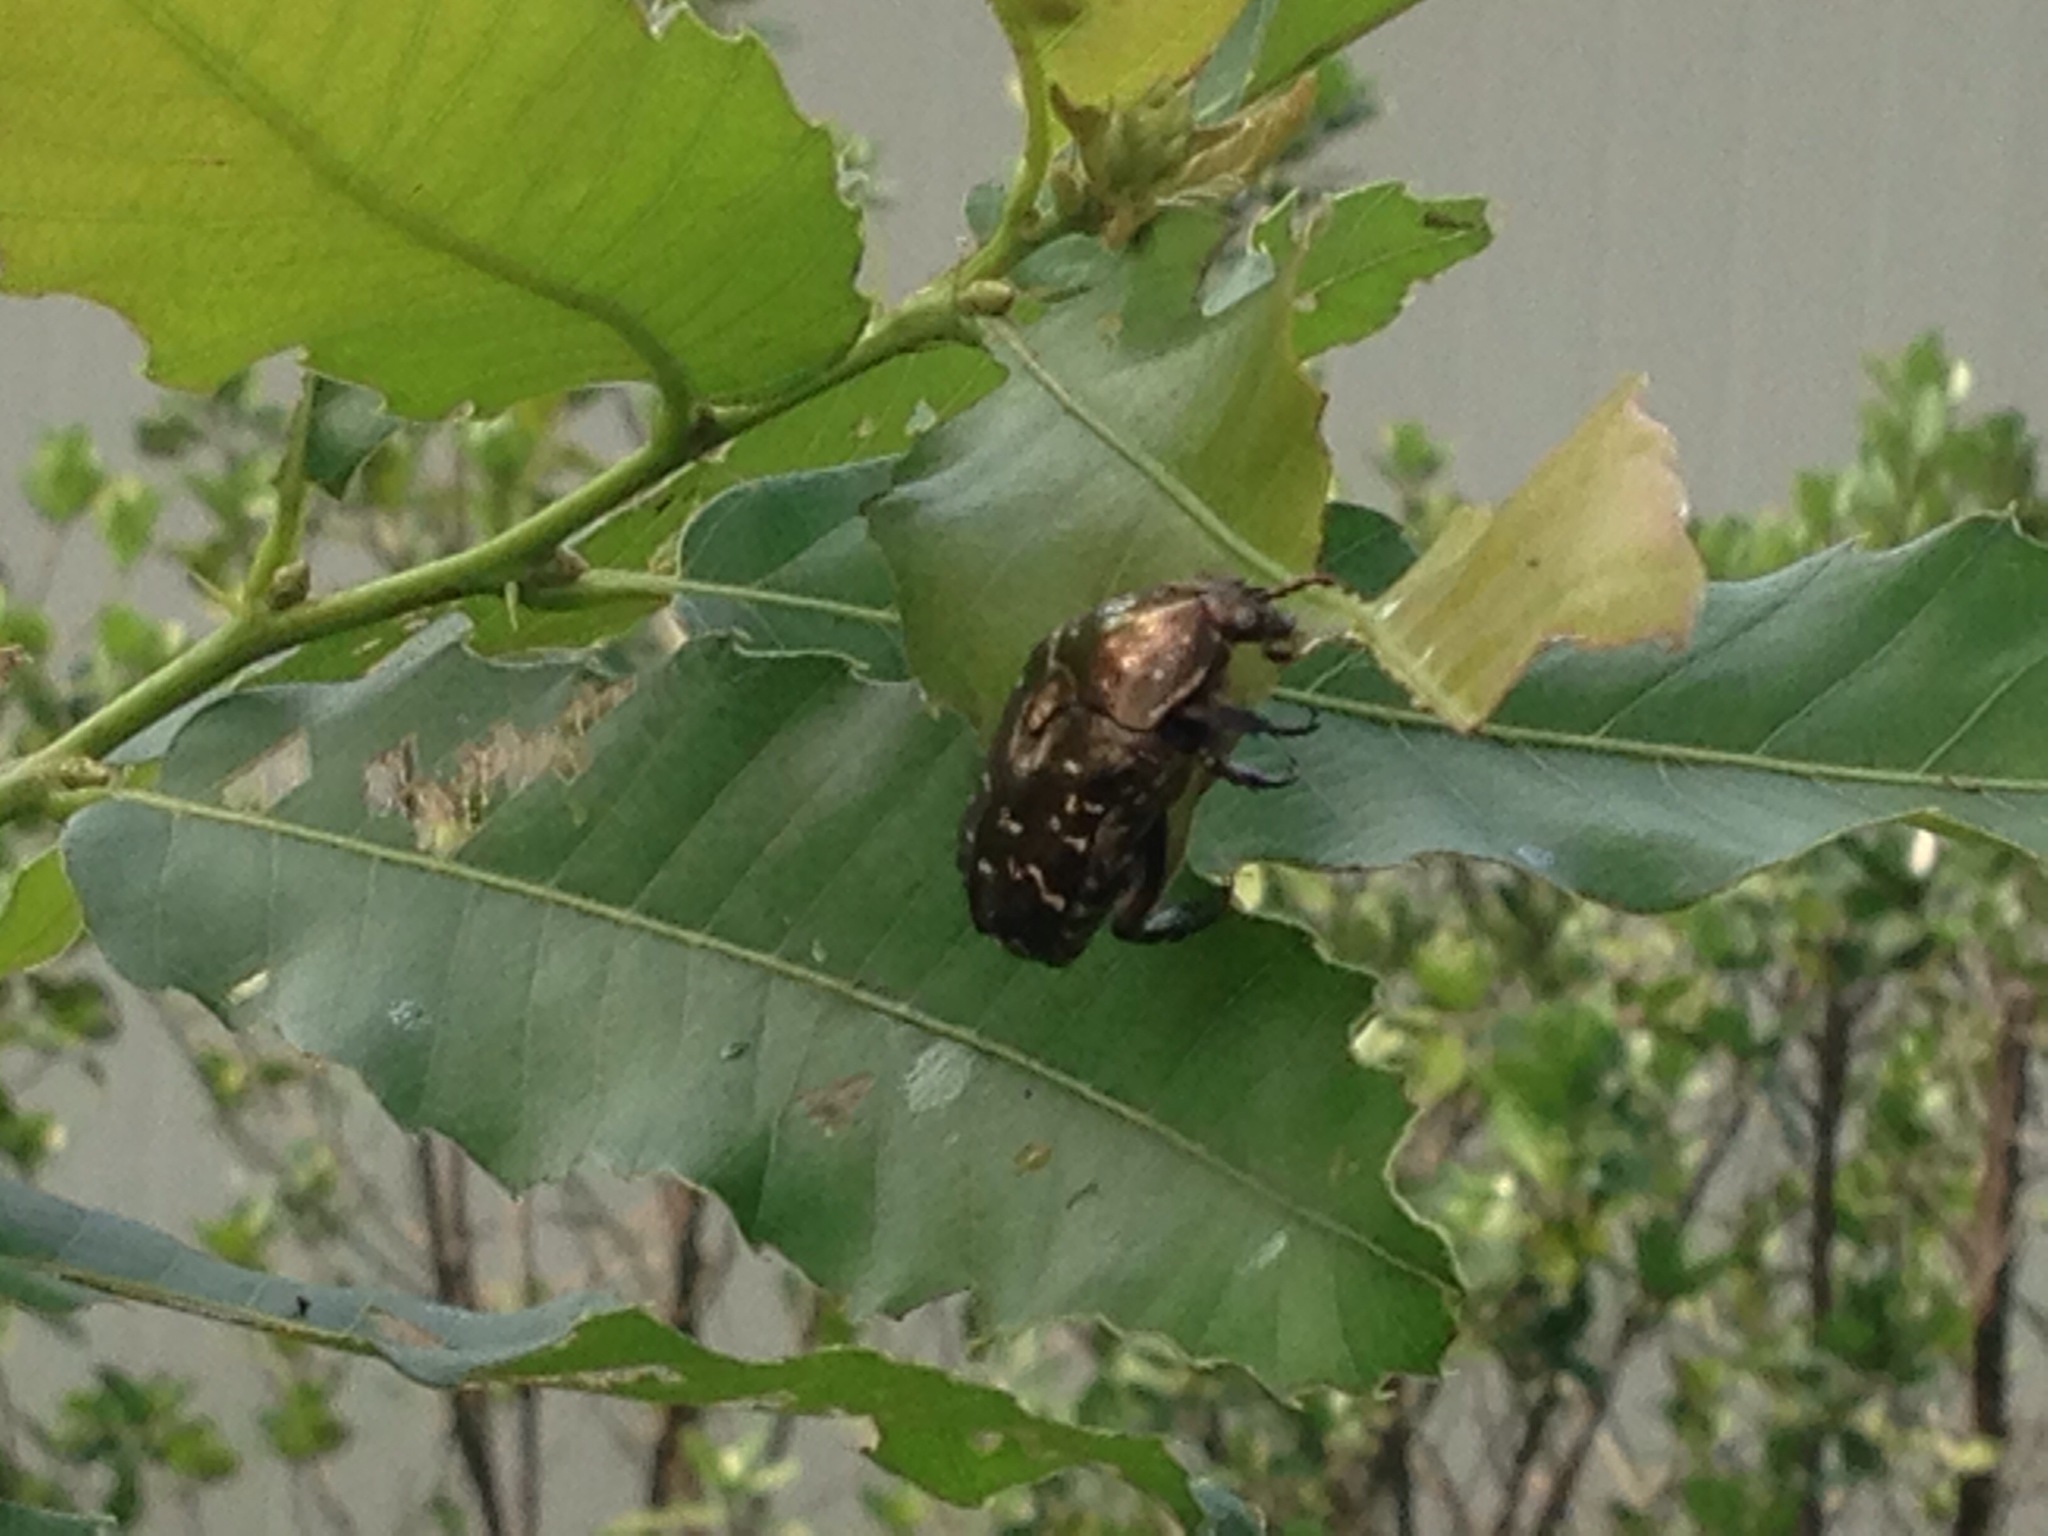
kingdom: Animalia
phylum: Arthropoda
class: Insecta
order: Coleoptera
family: Scarabaeidae
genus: Protaetia
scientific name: Protaetia orientalis
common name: Oriental flower beetle
